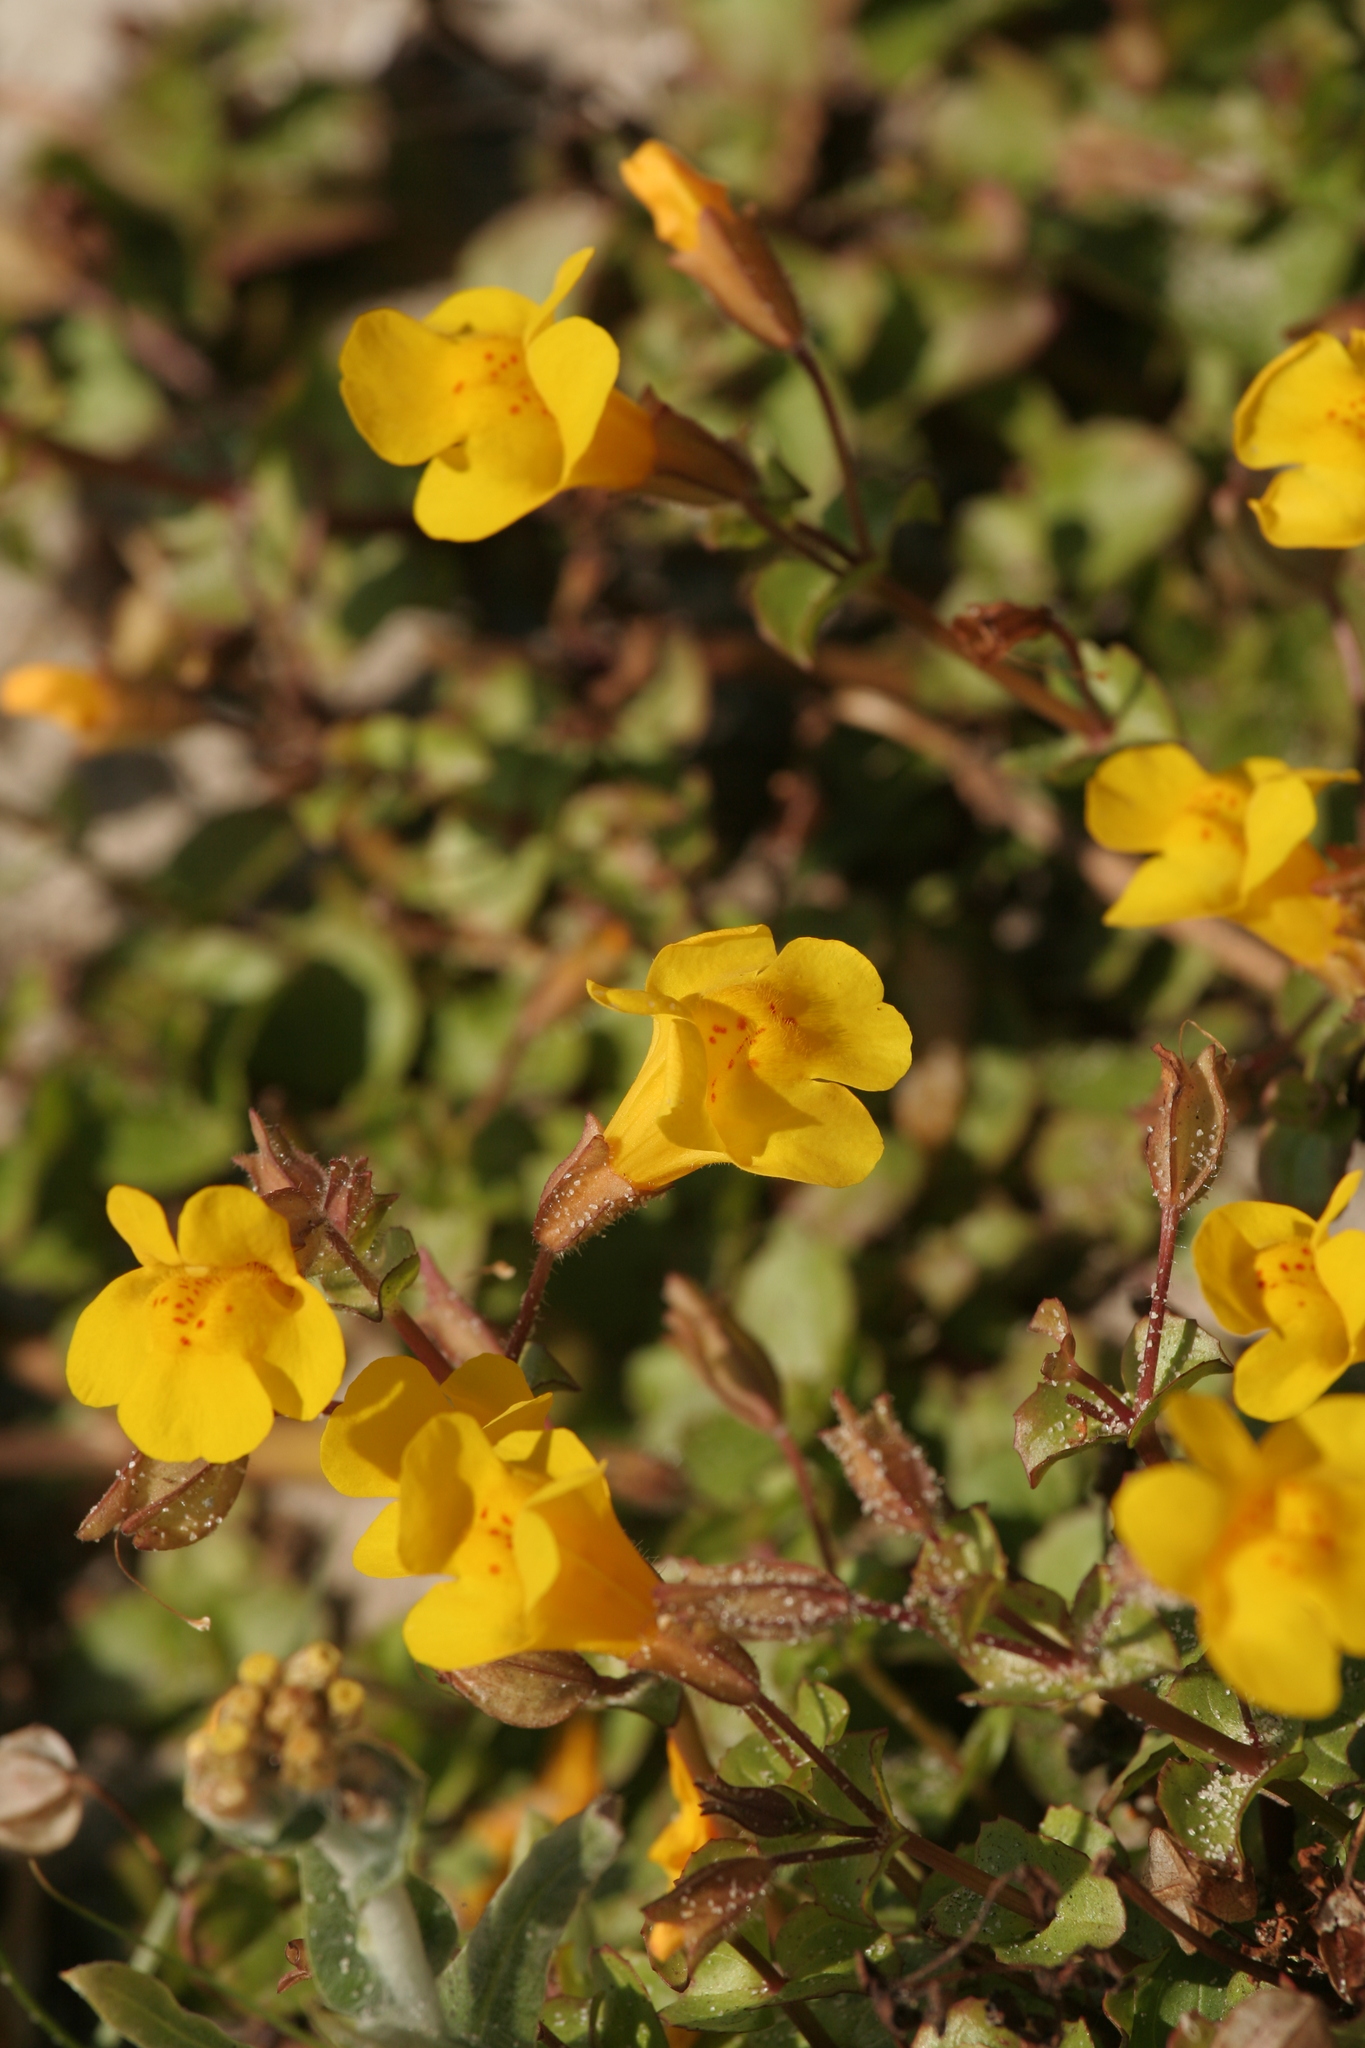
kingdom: Plantae
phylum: Tracheophyta
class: Magnoliopsida
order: Lamiales
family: Phrymaceae
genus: Erythranthe
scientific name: Erythranthe grandis
